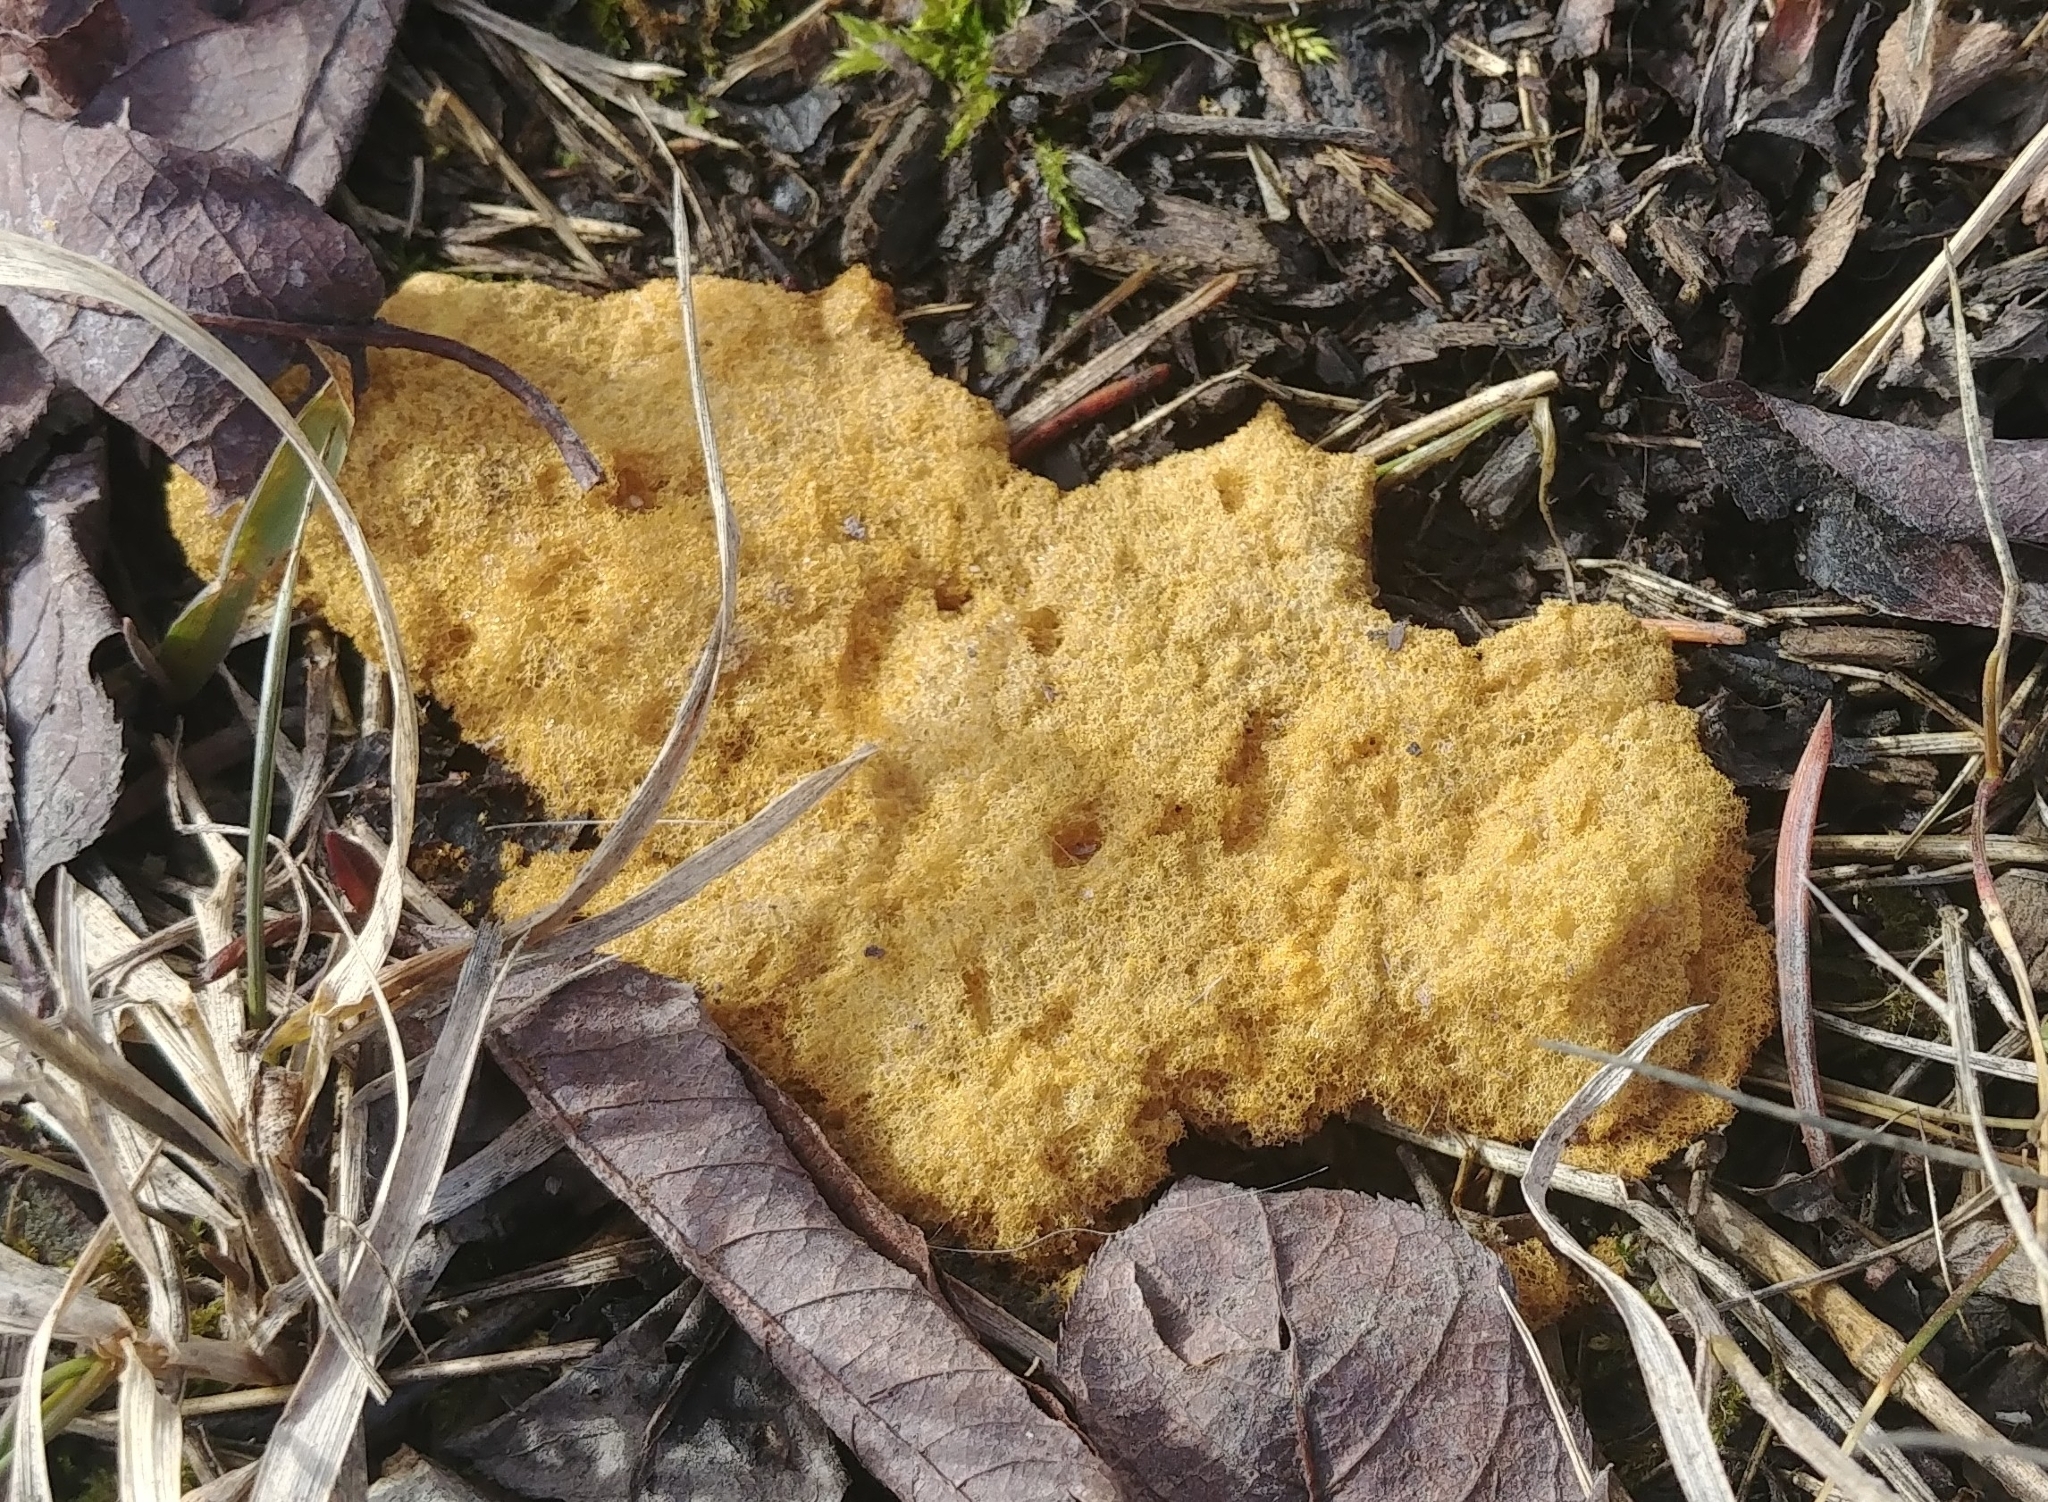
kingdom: Protozoa
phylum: Mycetozoa
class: Myxomycetes
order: Physarales
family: Physaraceae
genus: Fuligo
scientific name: Fuligo septica
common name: Dog vomit slime mold
